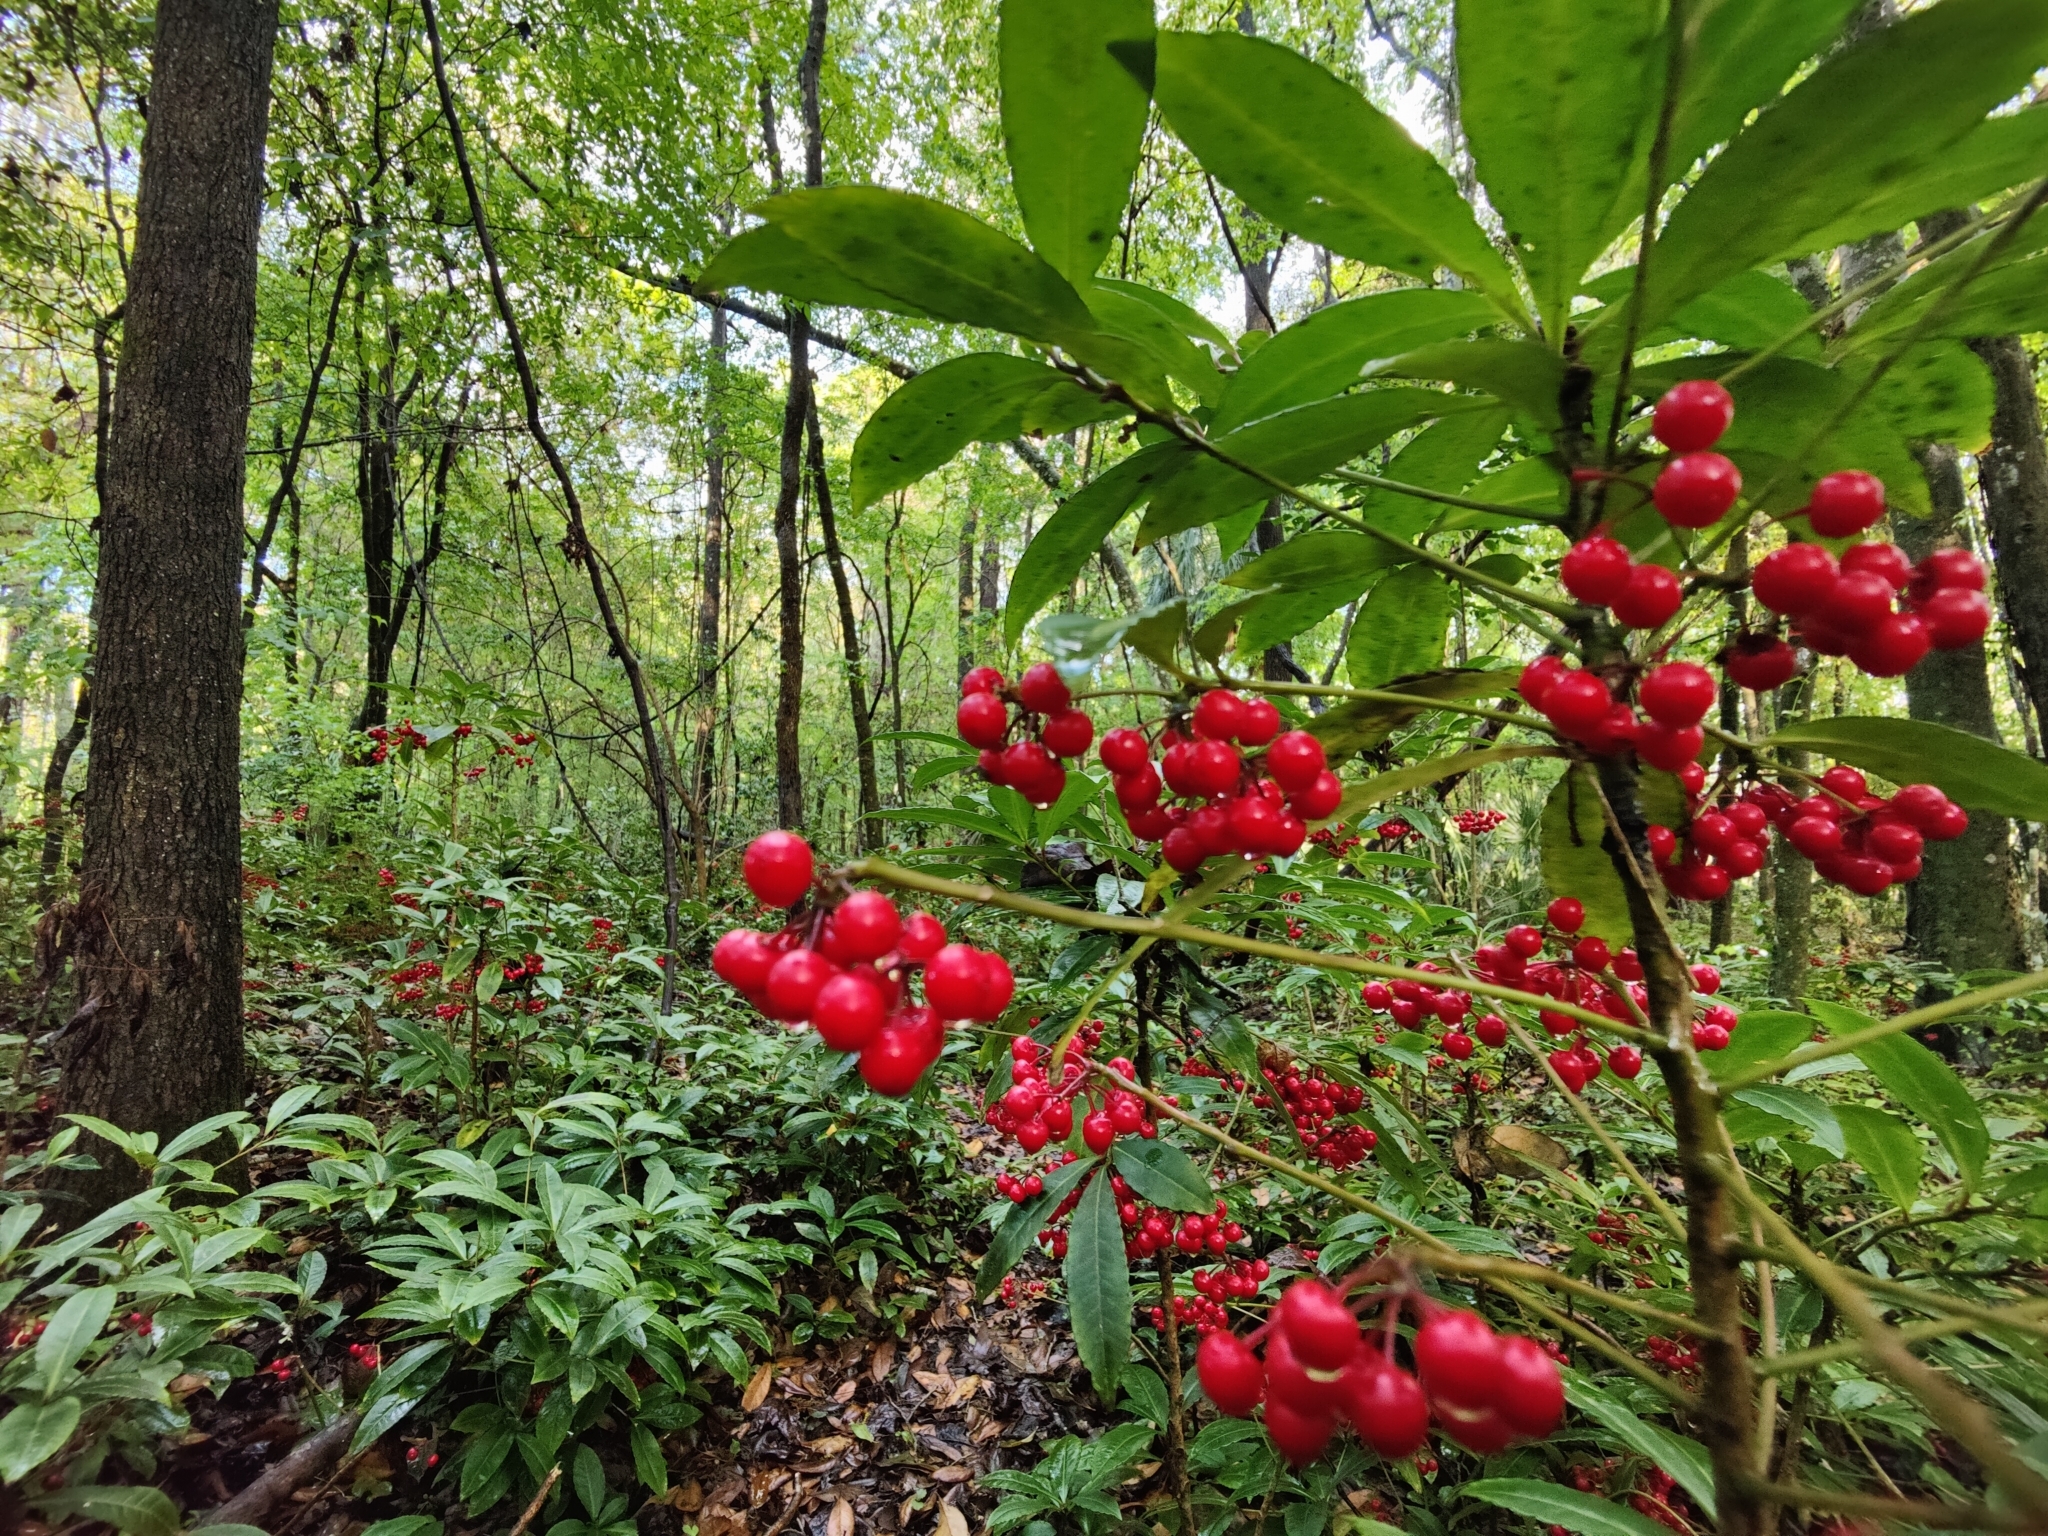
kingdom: Plantae
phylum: Tracheophyta
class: Magnoliopsida
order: Ericales
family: Primulaceae
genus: Ardisia
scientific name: Ardisia crenata
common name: Hen's eyes
